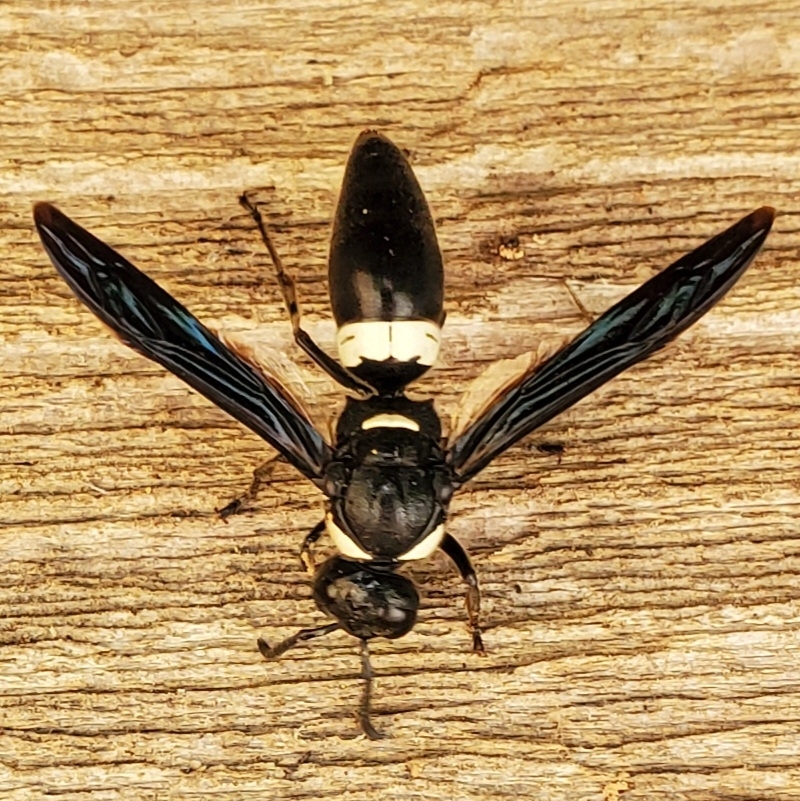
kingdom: Animalia
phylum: Arthropoda
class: Insecta
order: Hymenoptera
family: Eumenidae
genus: Monobia
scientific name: Monobia quadridens
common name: Four-toothed mason wasp
